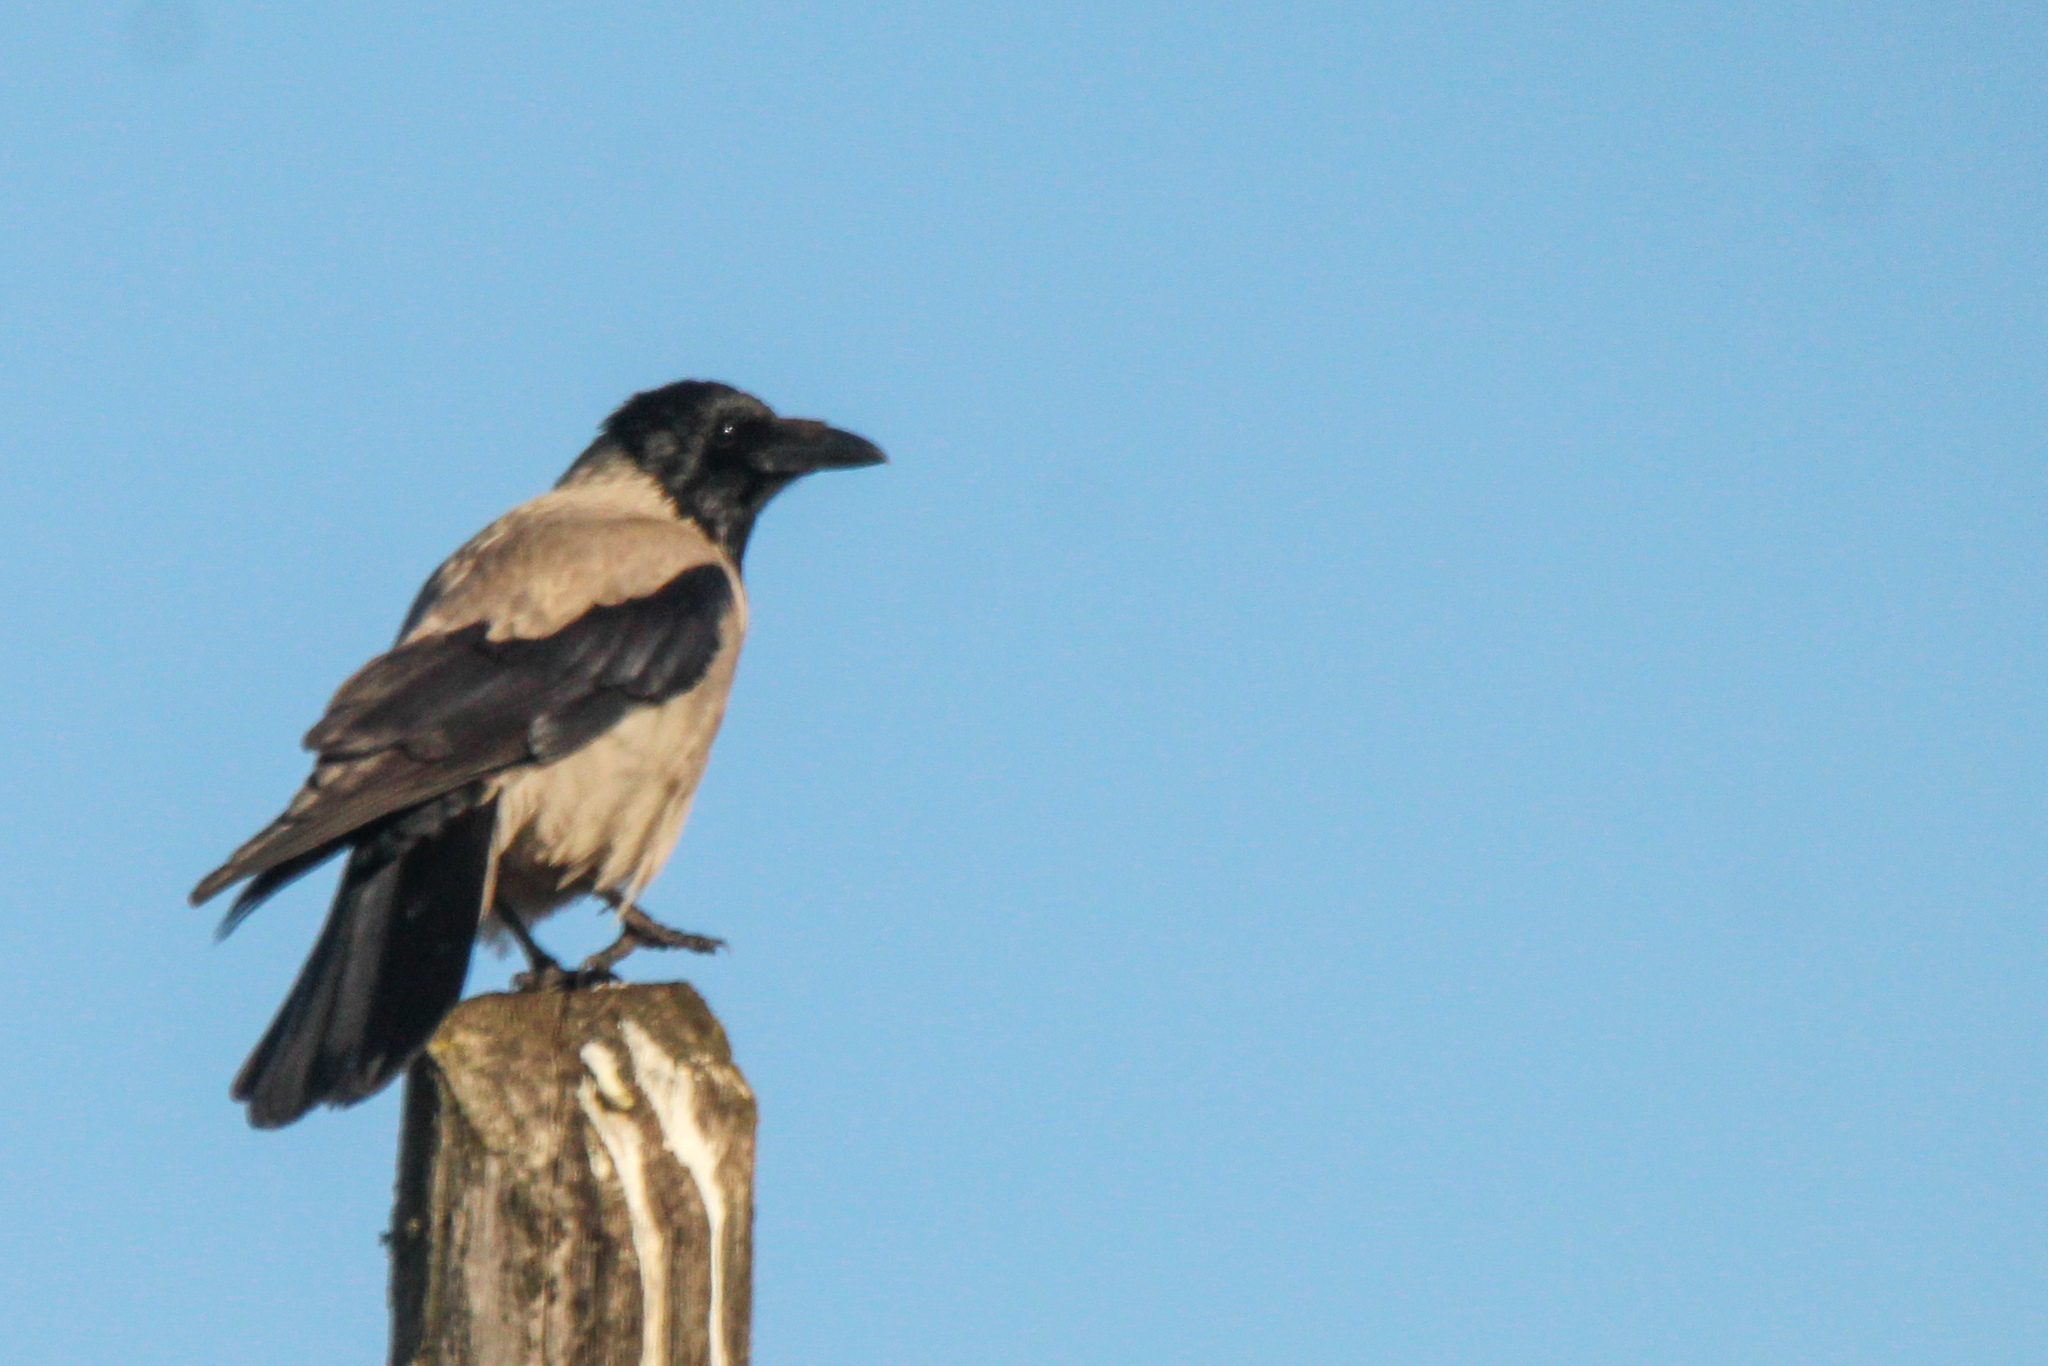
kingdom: Animalia
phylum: Chordata
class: Aves
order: Passeriformes
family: Corvidae
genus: Corvus
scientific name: Corvus cornix
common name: Hooded crow
